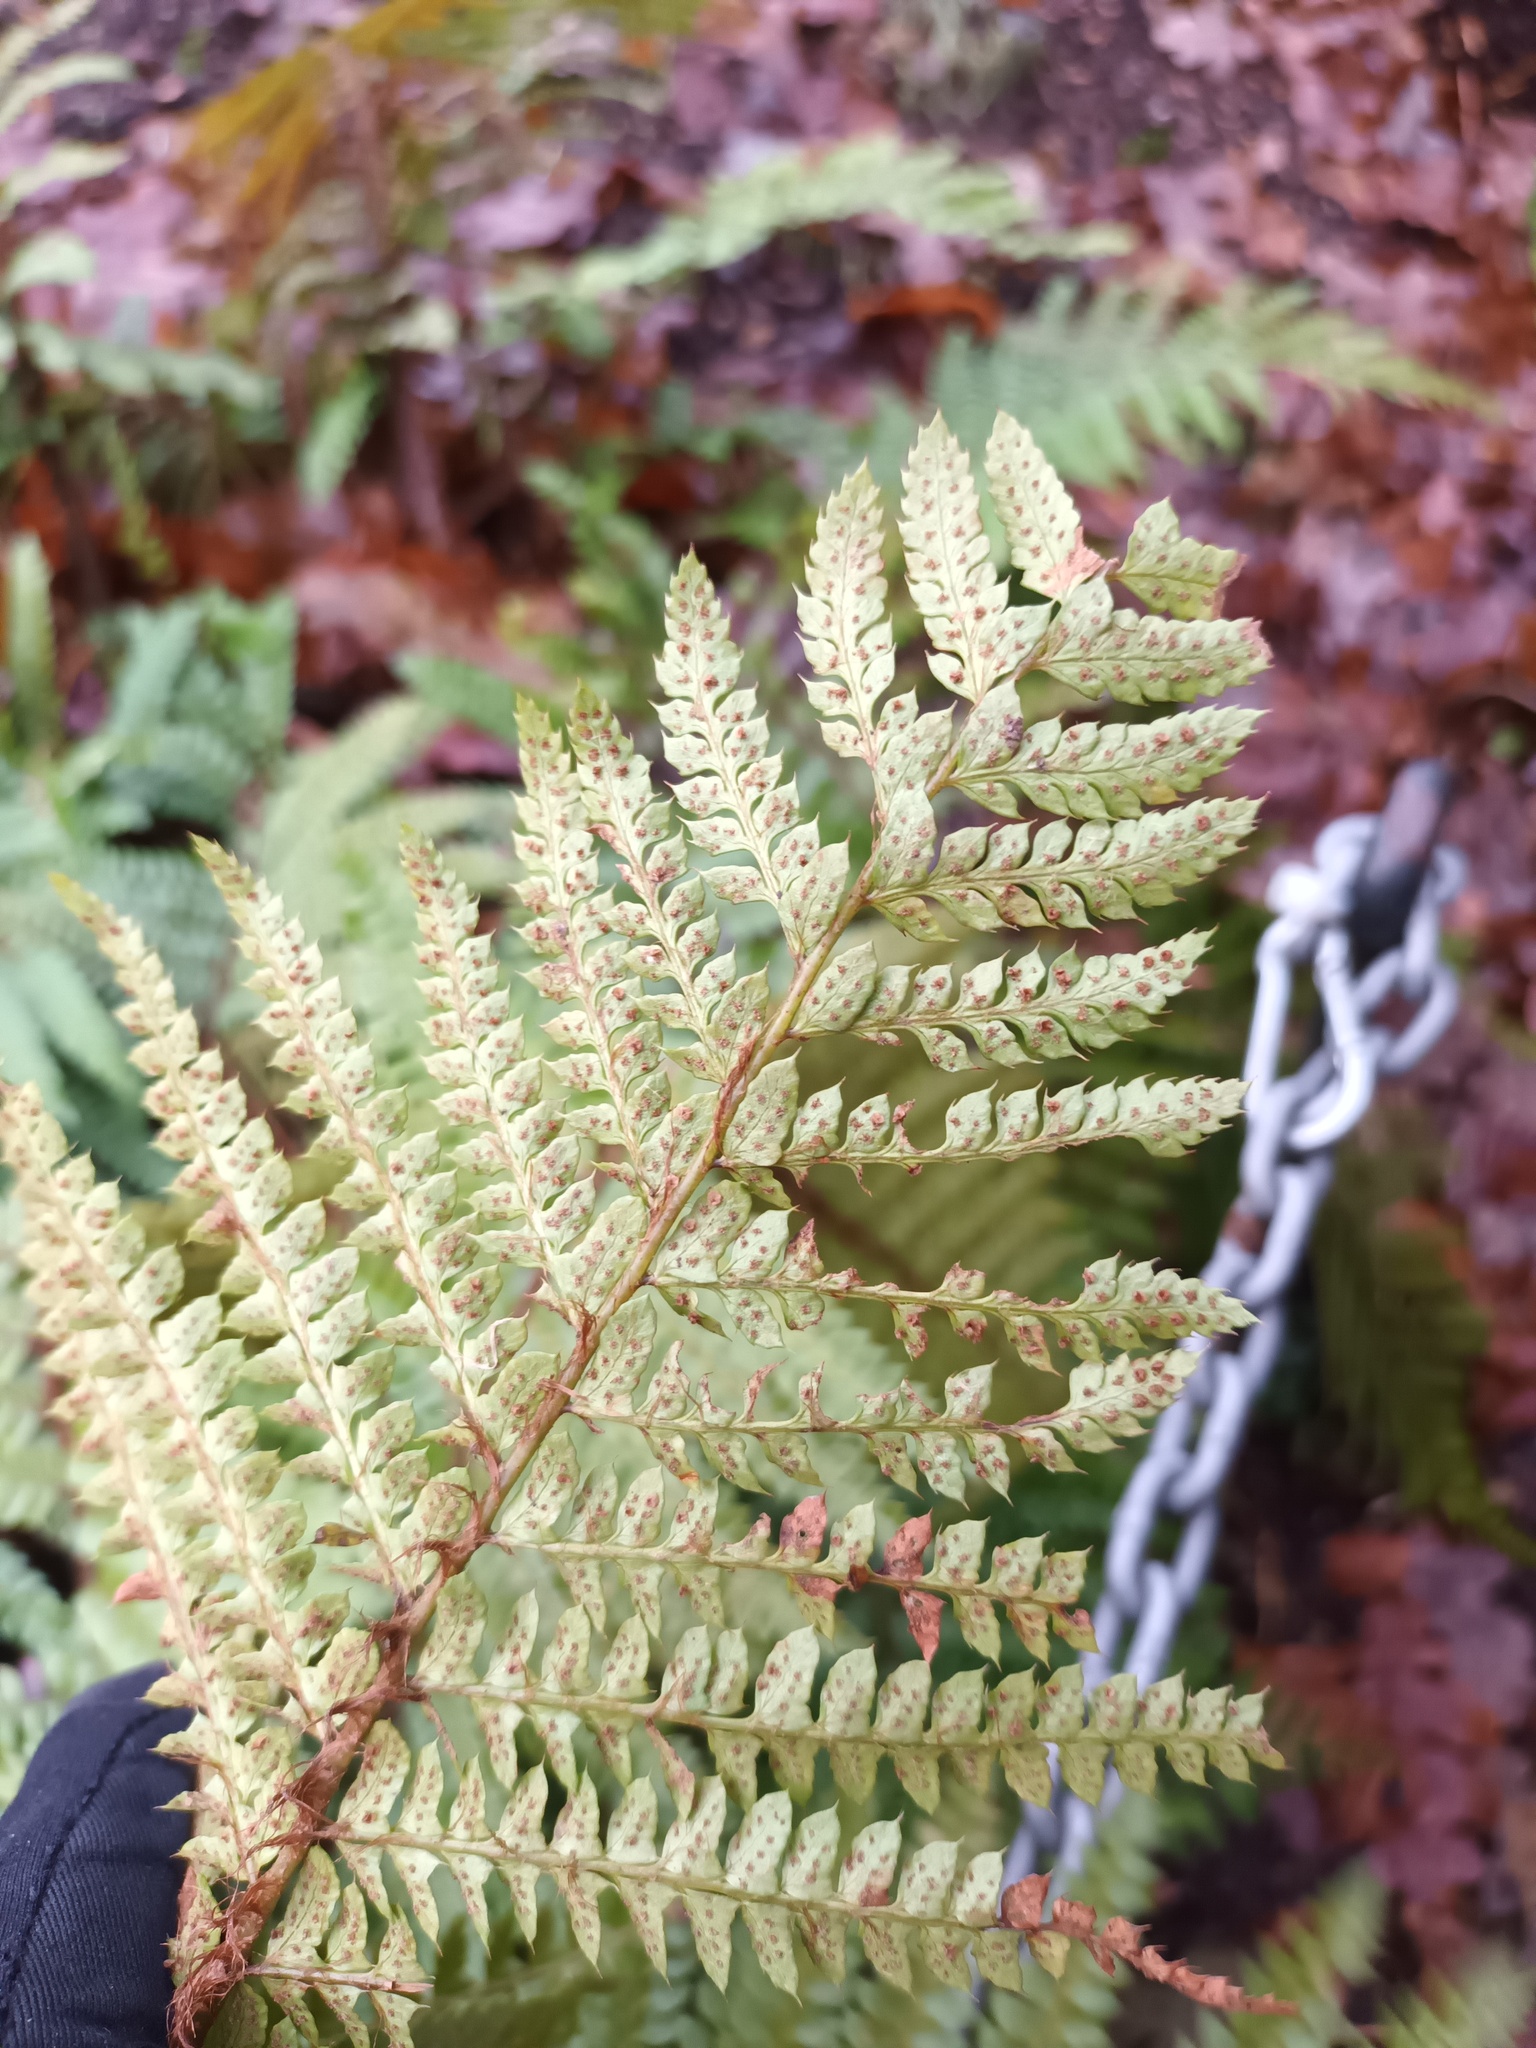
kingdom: Plantae
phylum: Tracheophyta
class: Polypodiopsida
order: Polypodiales
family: Dryopteridaceae
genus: Polystichum
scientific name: Polystichum setiferum
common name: Soft shield-fern
